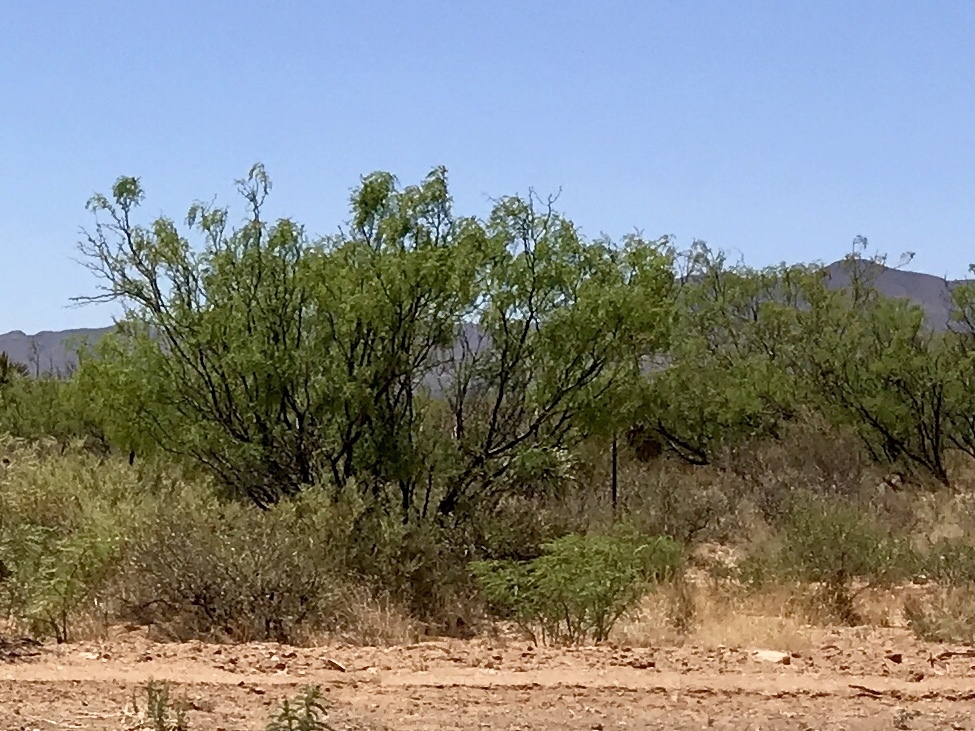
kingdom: Plantae
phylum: Tracheophyta
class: Magnoliopsida
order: Fabales
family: Fabaceae
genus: Prosopis
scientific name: Prosopis glandulosa
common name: Honey mesquite
